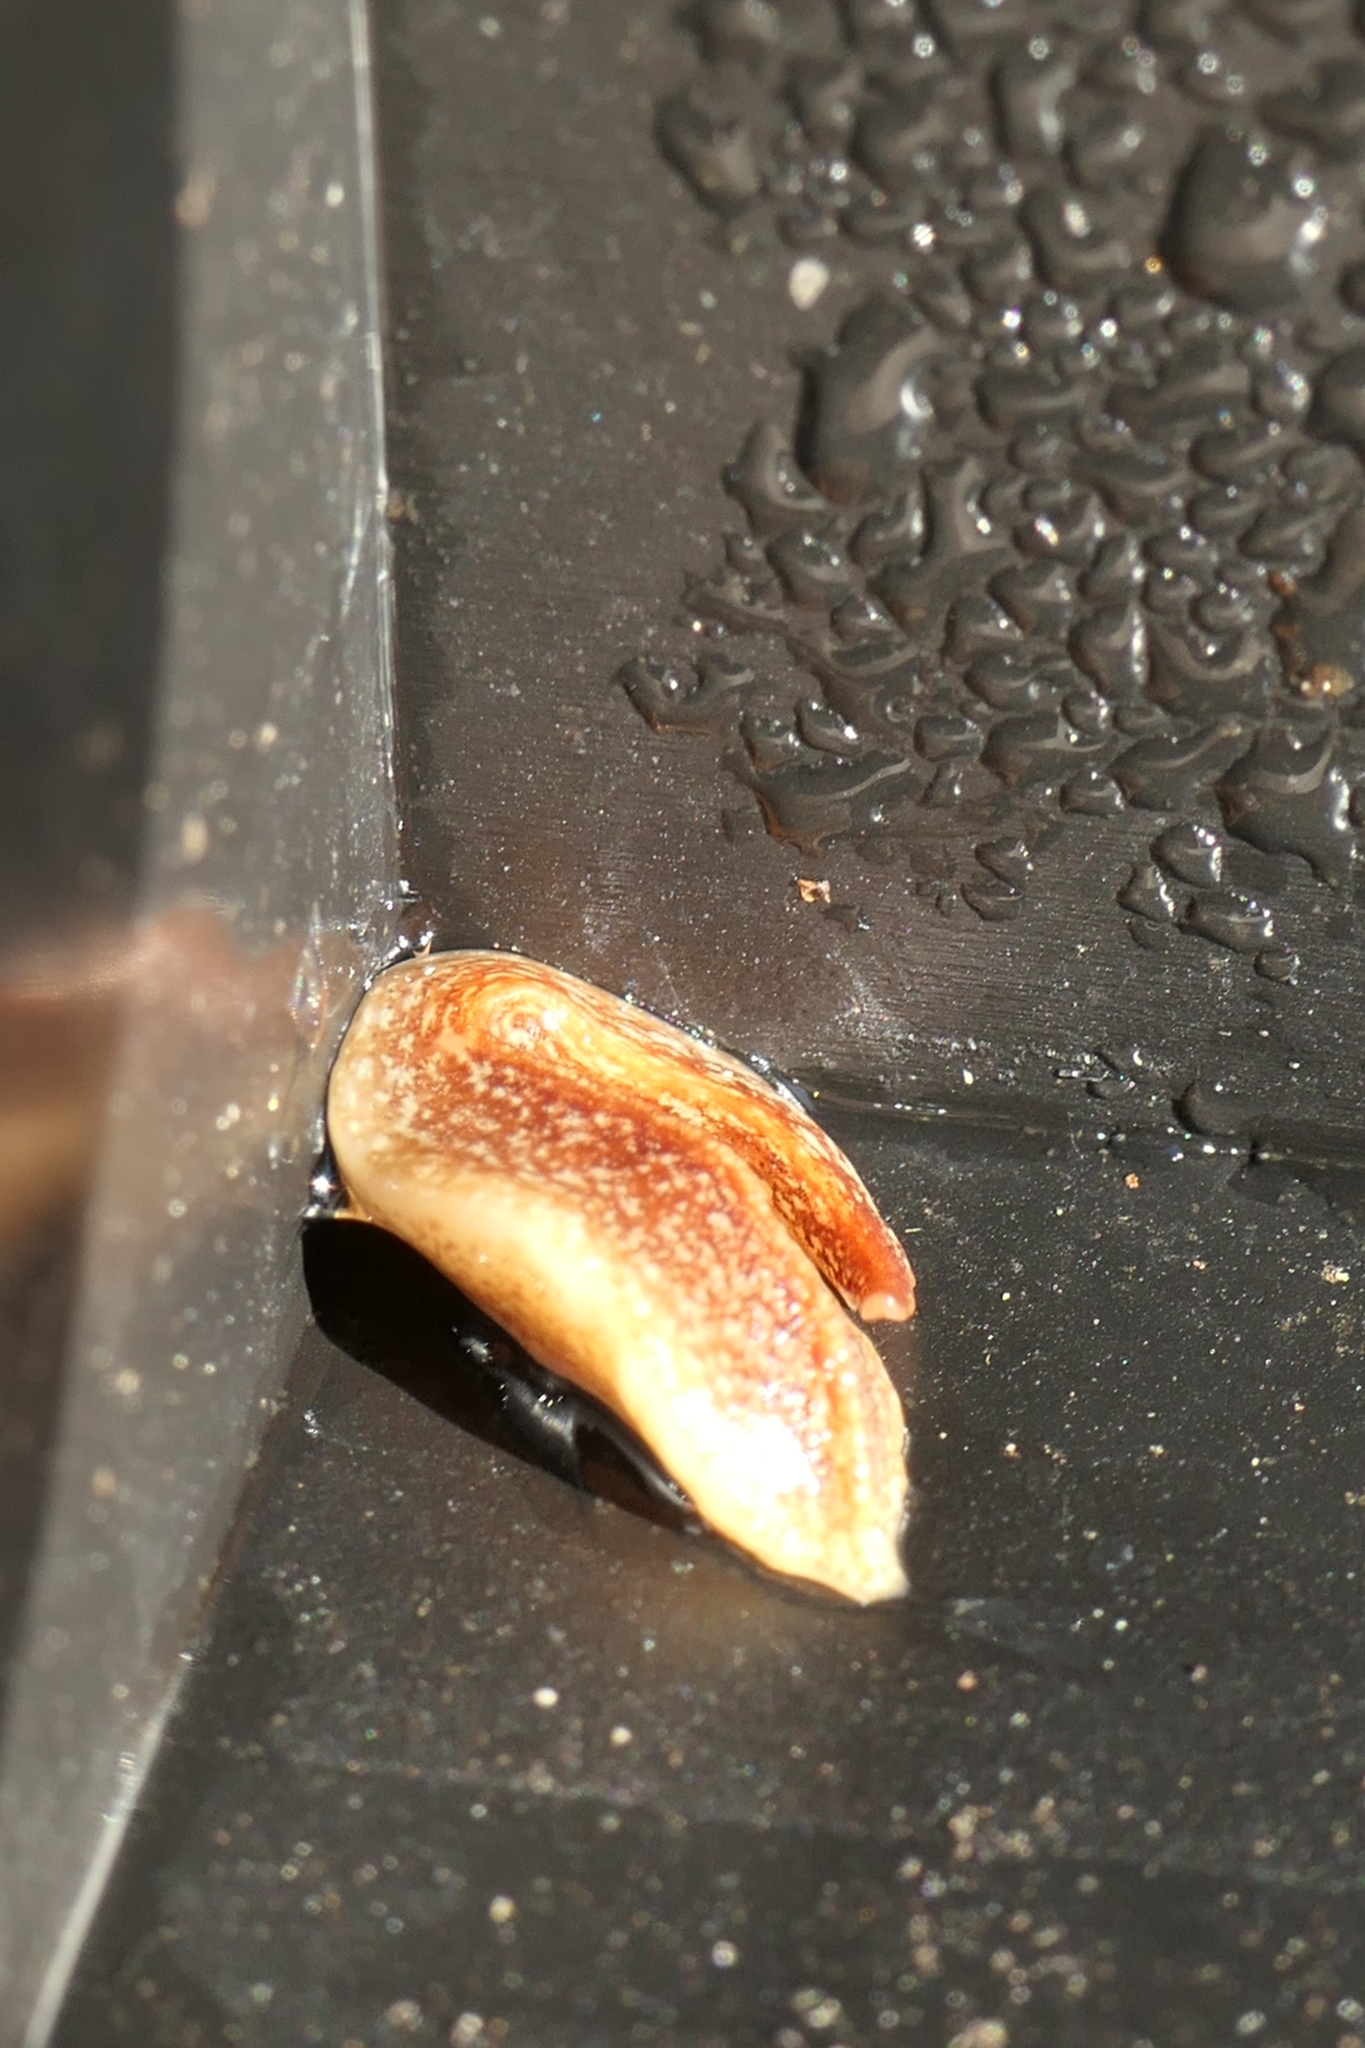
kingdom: Animalia
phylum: Platyhelminthes
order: Tricladida
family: Geoplanidae
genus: Australopacifica
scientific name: Australopacifica spectabilis
